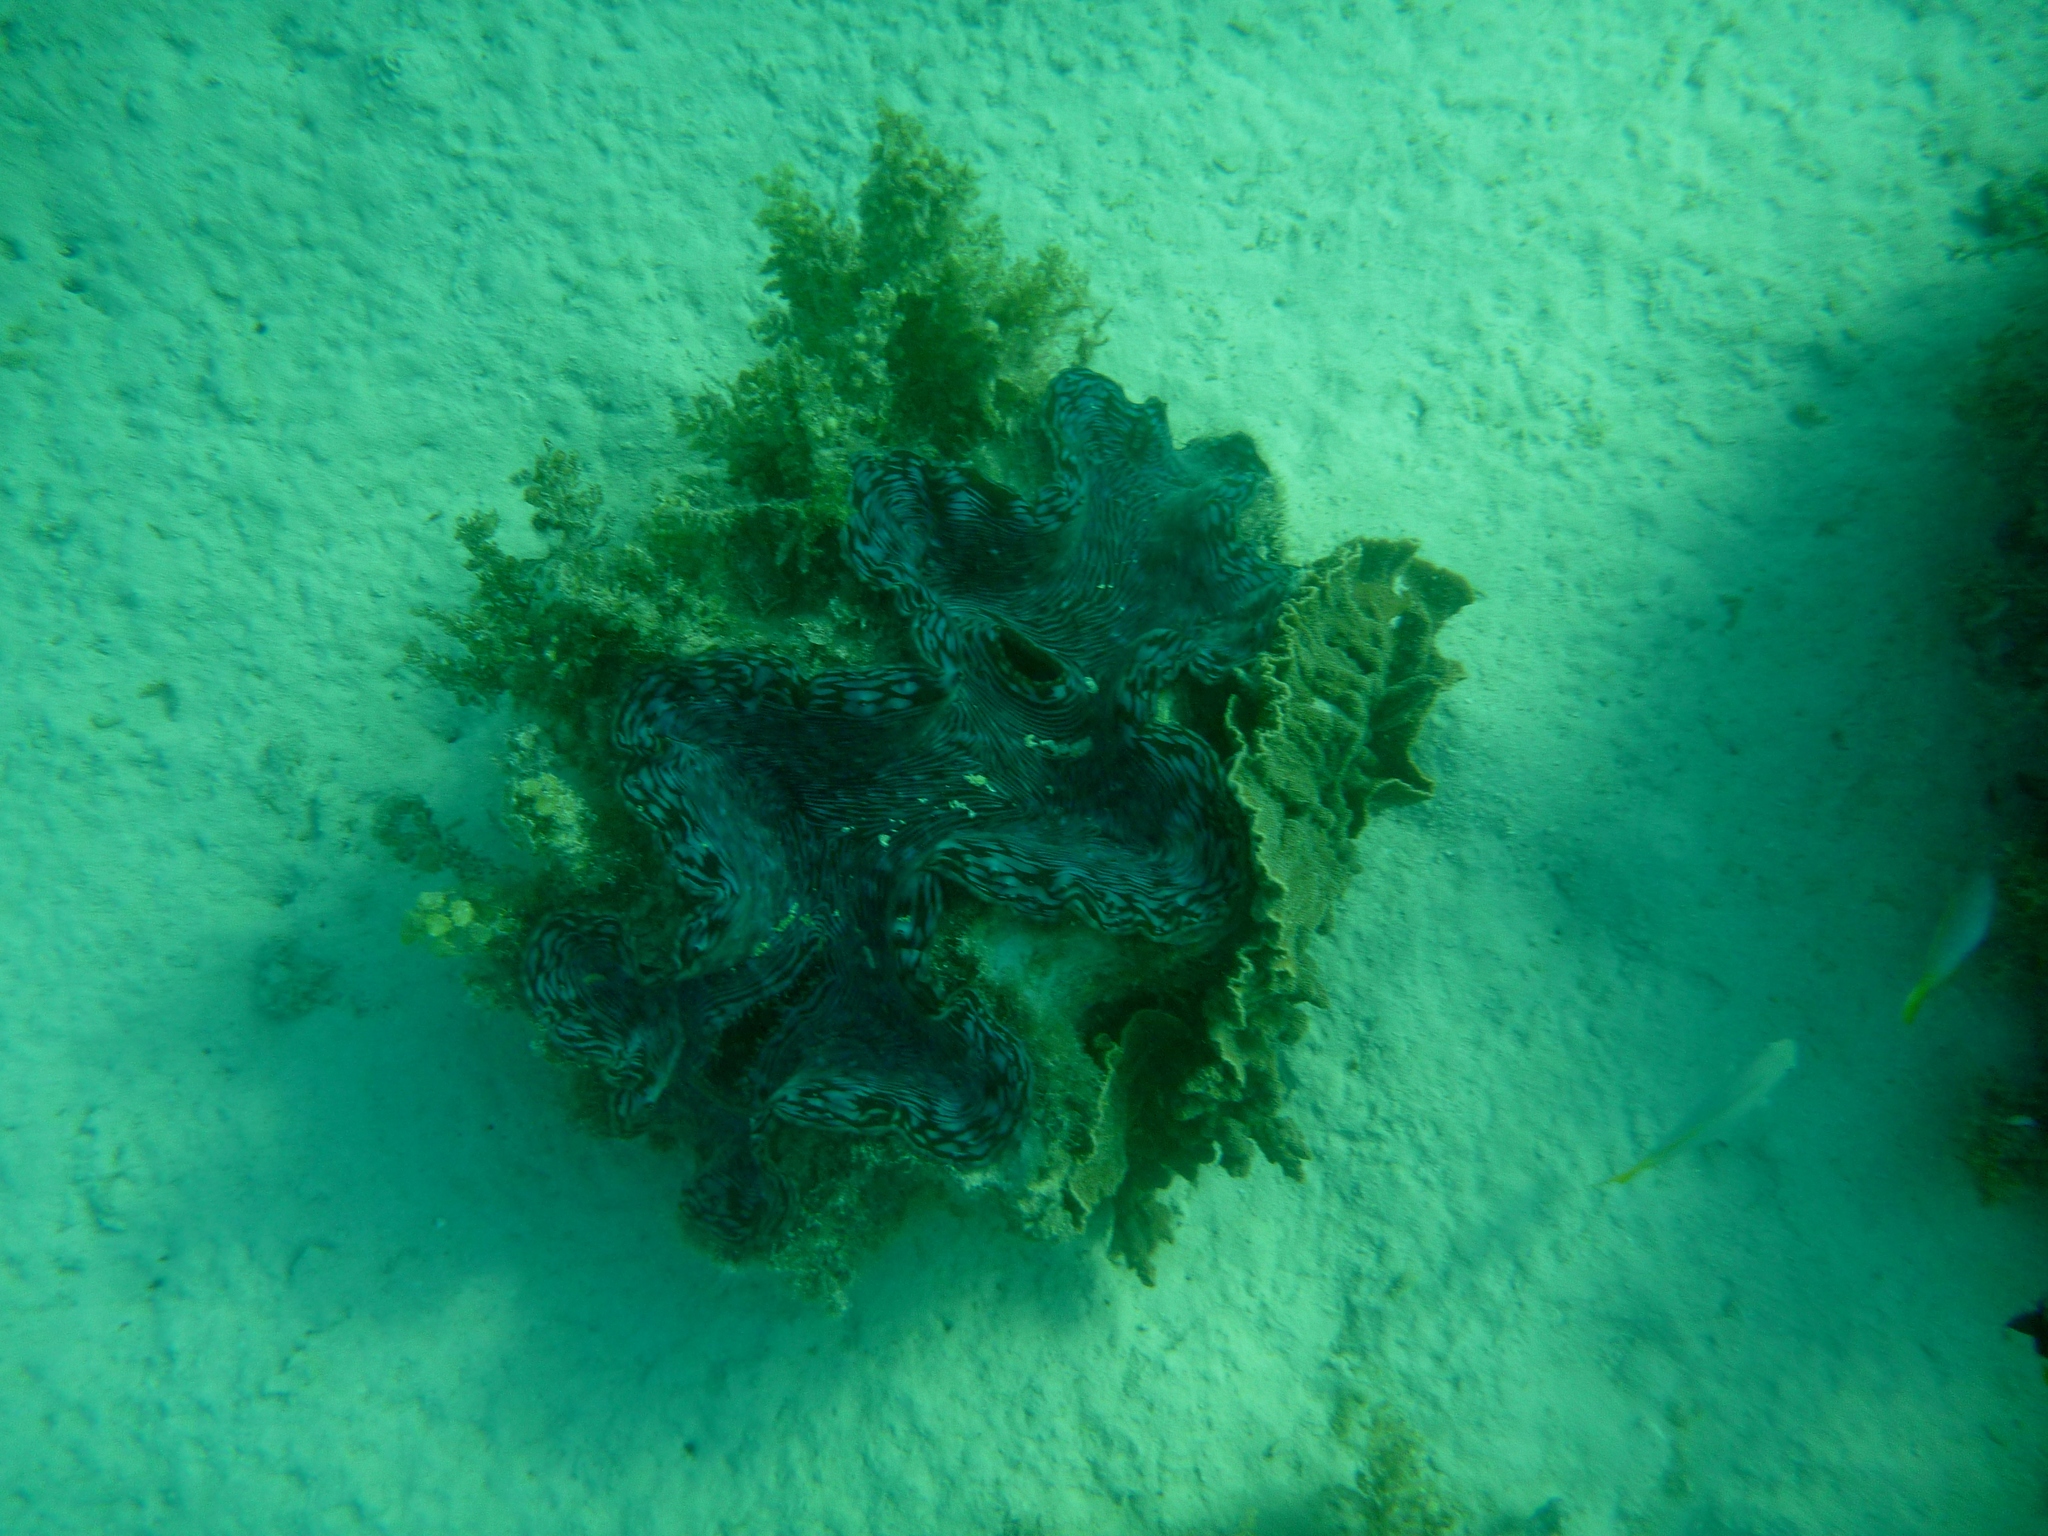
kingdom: Animalia
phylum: Mollusca
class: Bivalvia
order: Cardiida
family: Cardiidae
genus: Tridacna
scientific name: Tridacna squamosa
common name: Fluted clam
